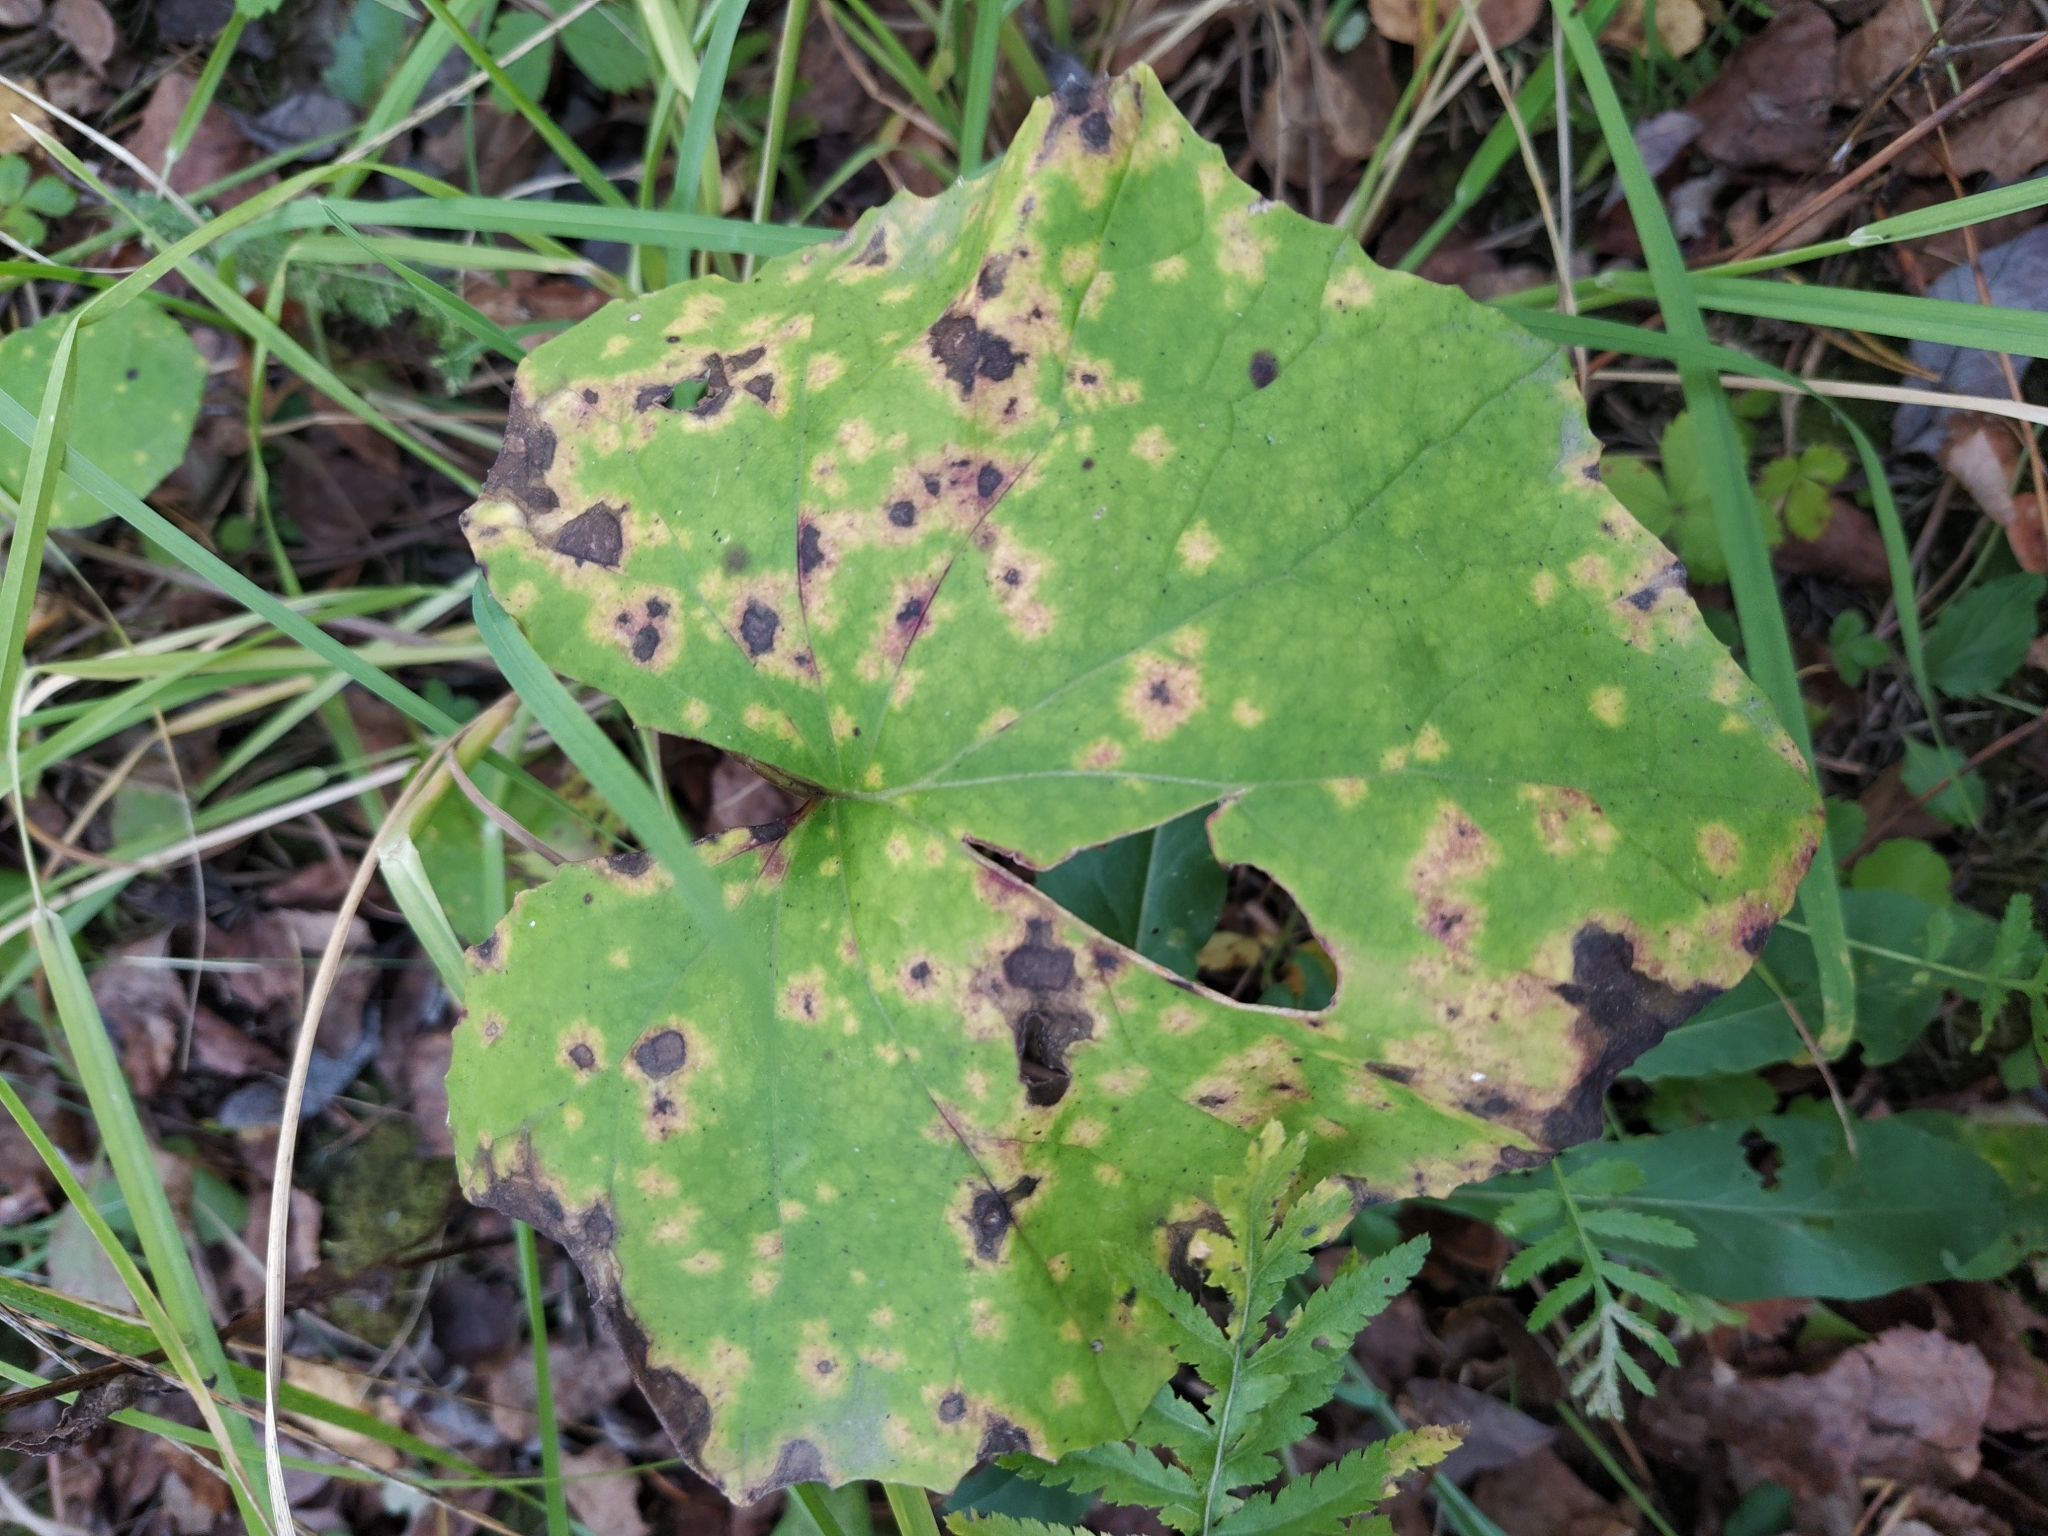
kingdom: Plantae
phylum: Tracheophyta
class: Magnoliopsida
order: Asterales
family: Asteraceae
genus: Tussilago
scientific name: Tussilago farfara
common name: Coltsfoot
